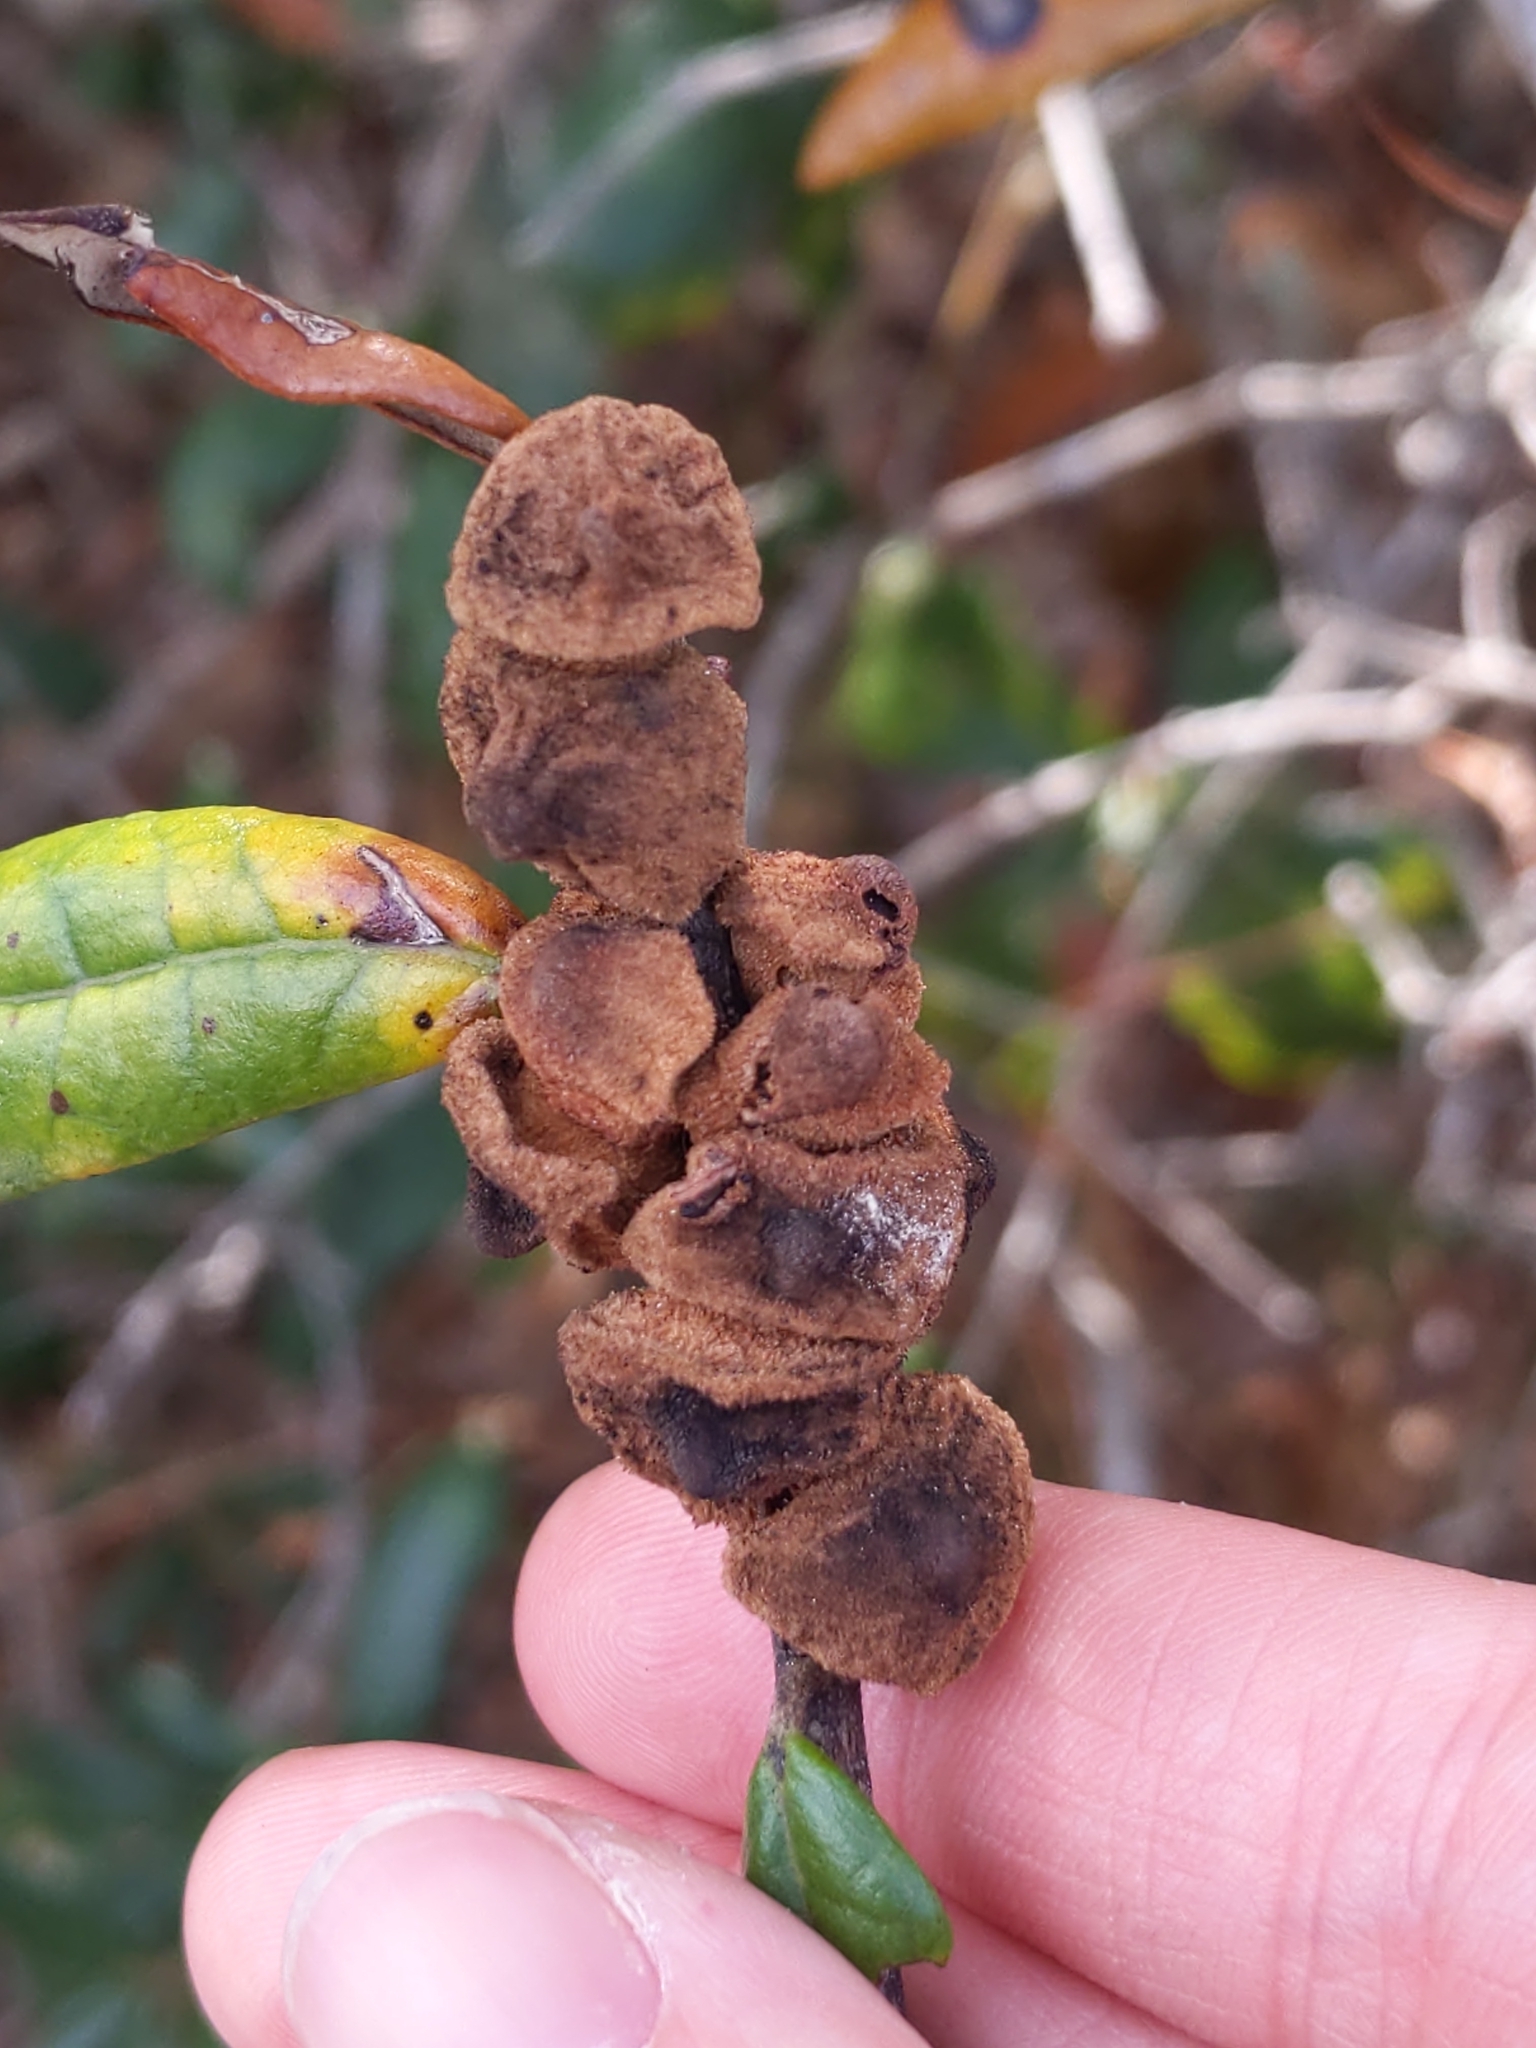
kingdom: Animalia
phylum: Arthropoda
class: Insecta
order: Hymenoptera
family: Cynipidae
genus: Disholcaspis
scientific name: Disholcaspis
